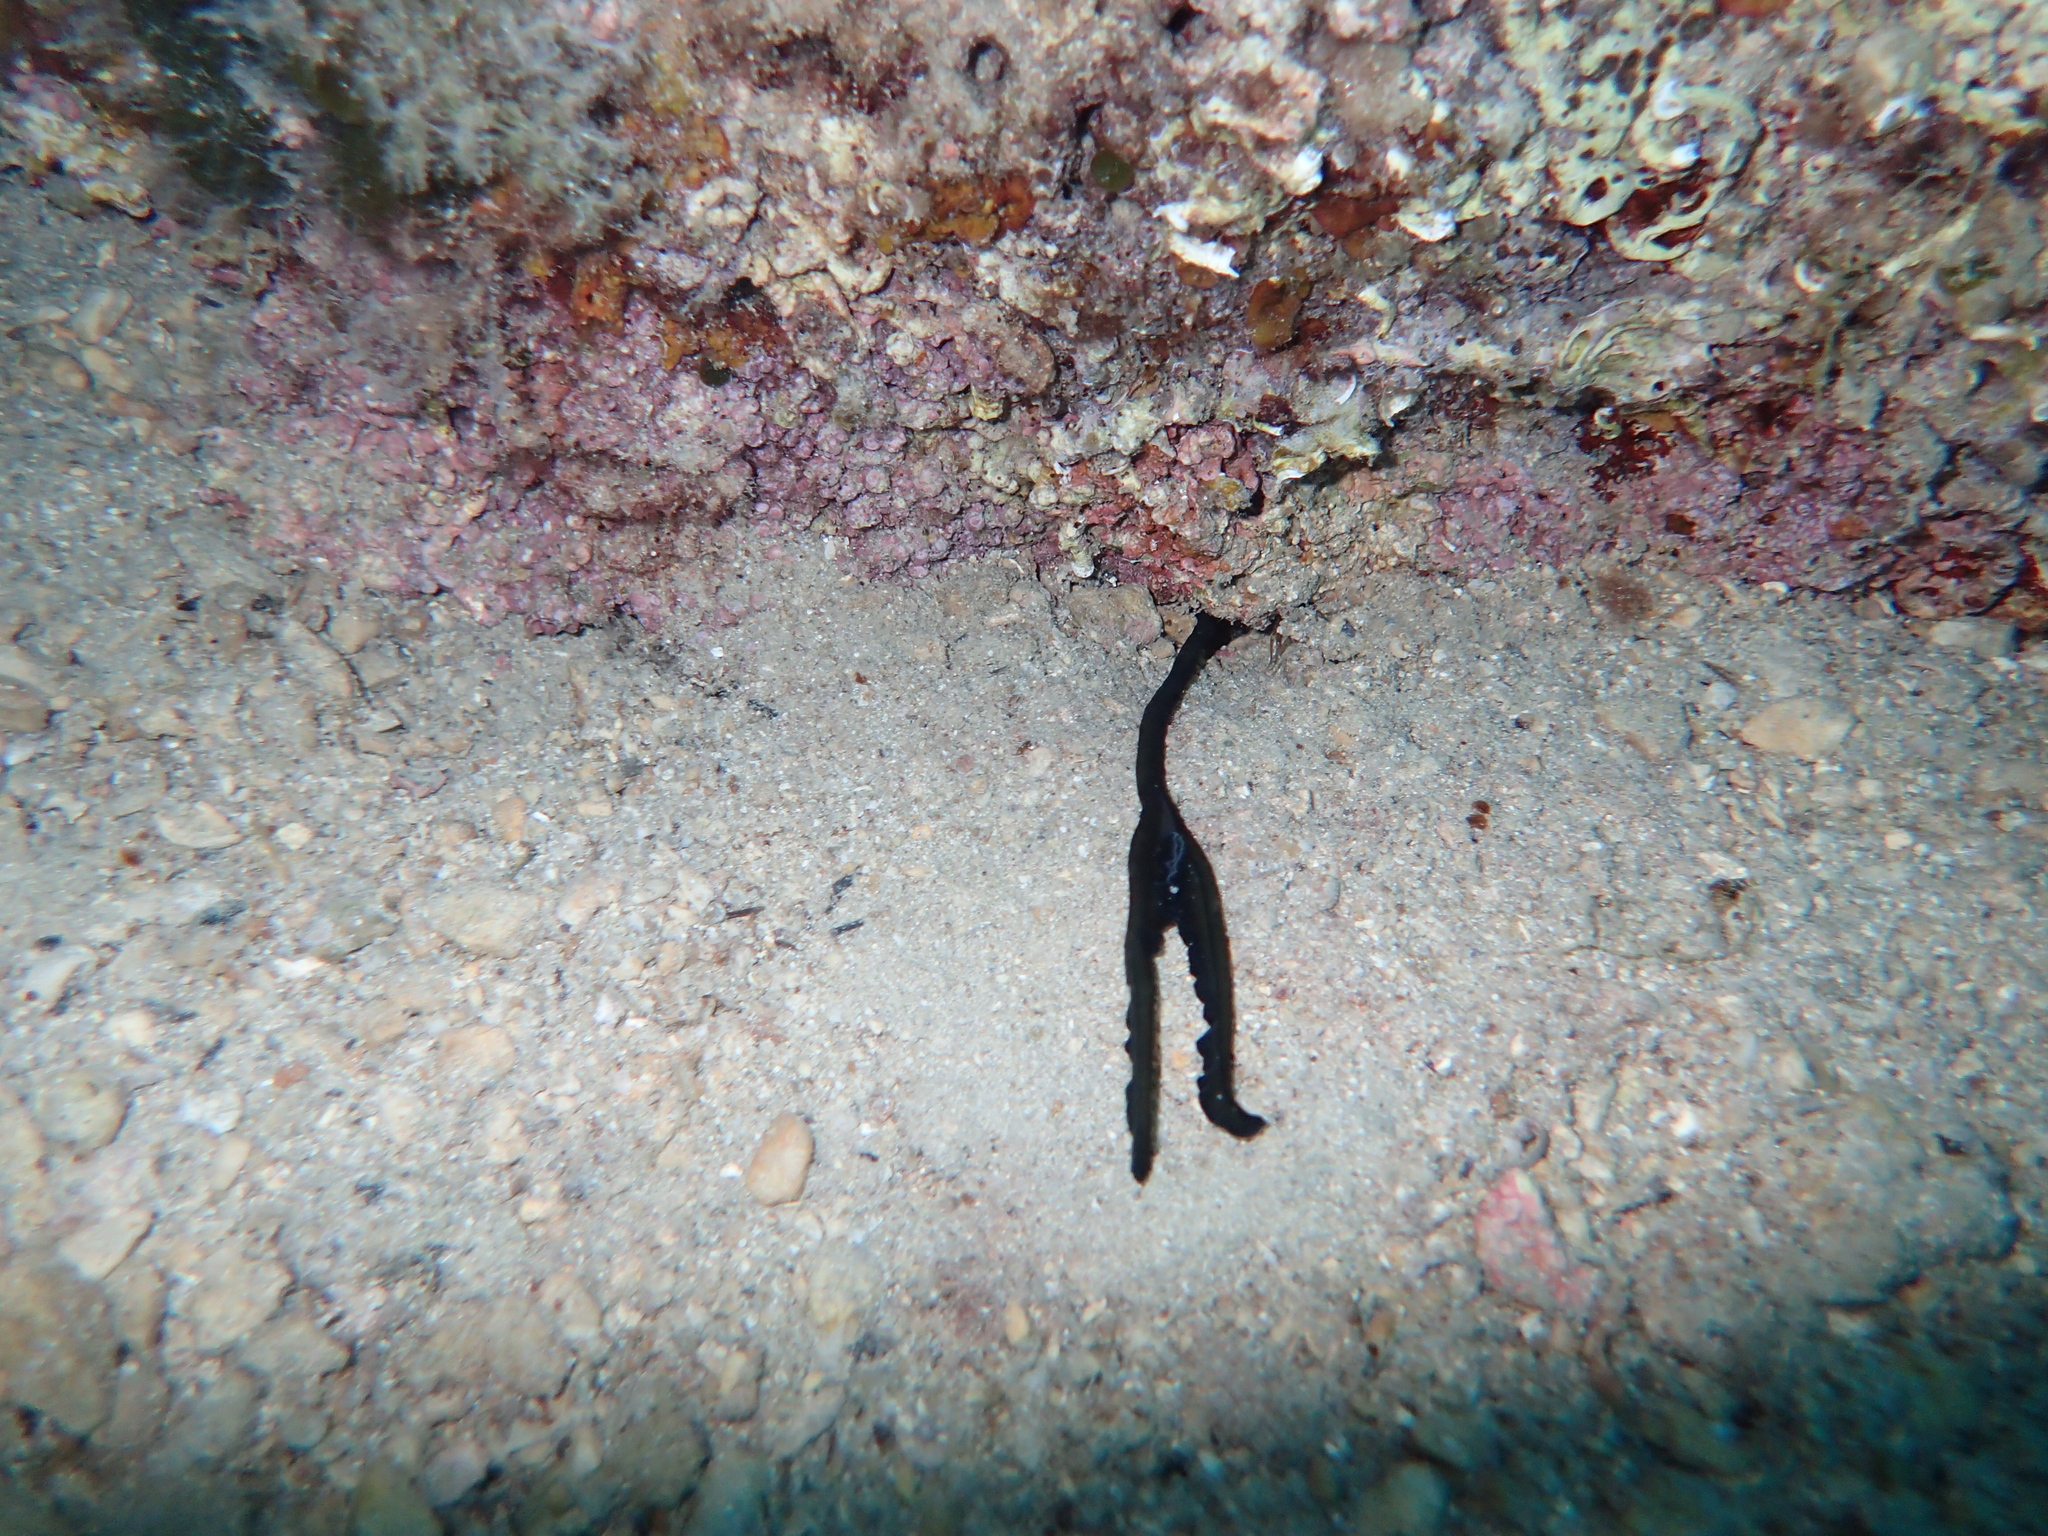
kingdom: Animalia
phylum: Annelida
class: Polychaeta
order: Echiuroidea
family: Bonelliidae
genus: Bonellia
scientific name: Bonellia viridis
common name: Green spoon worm
